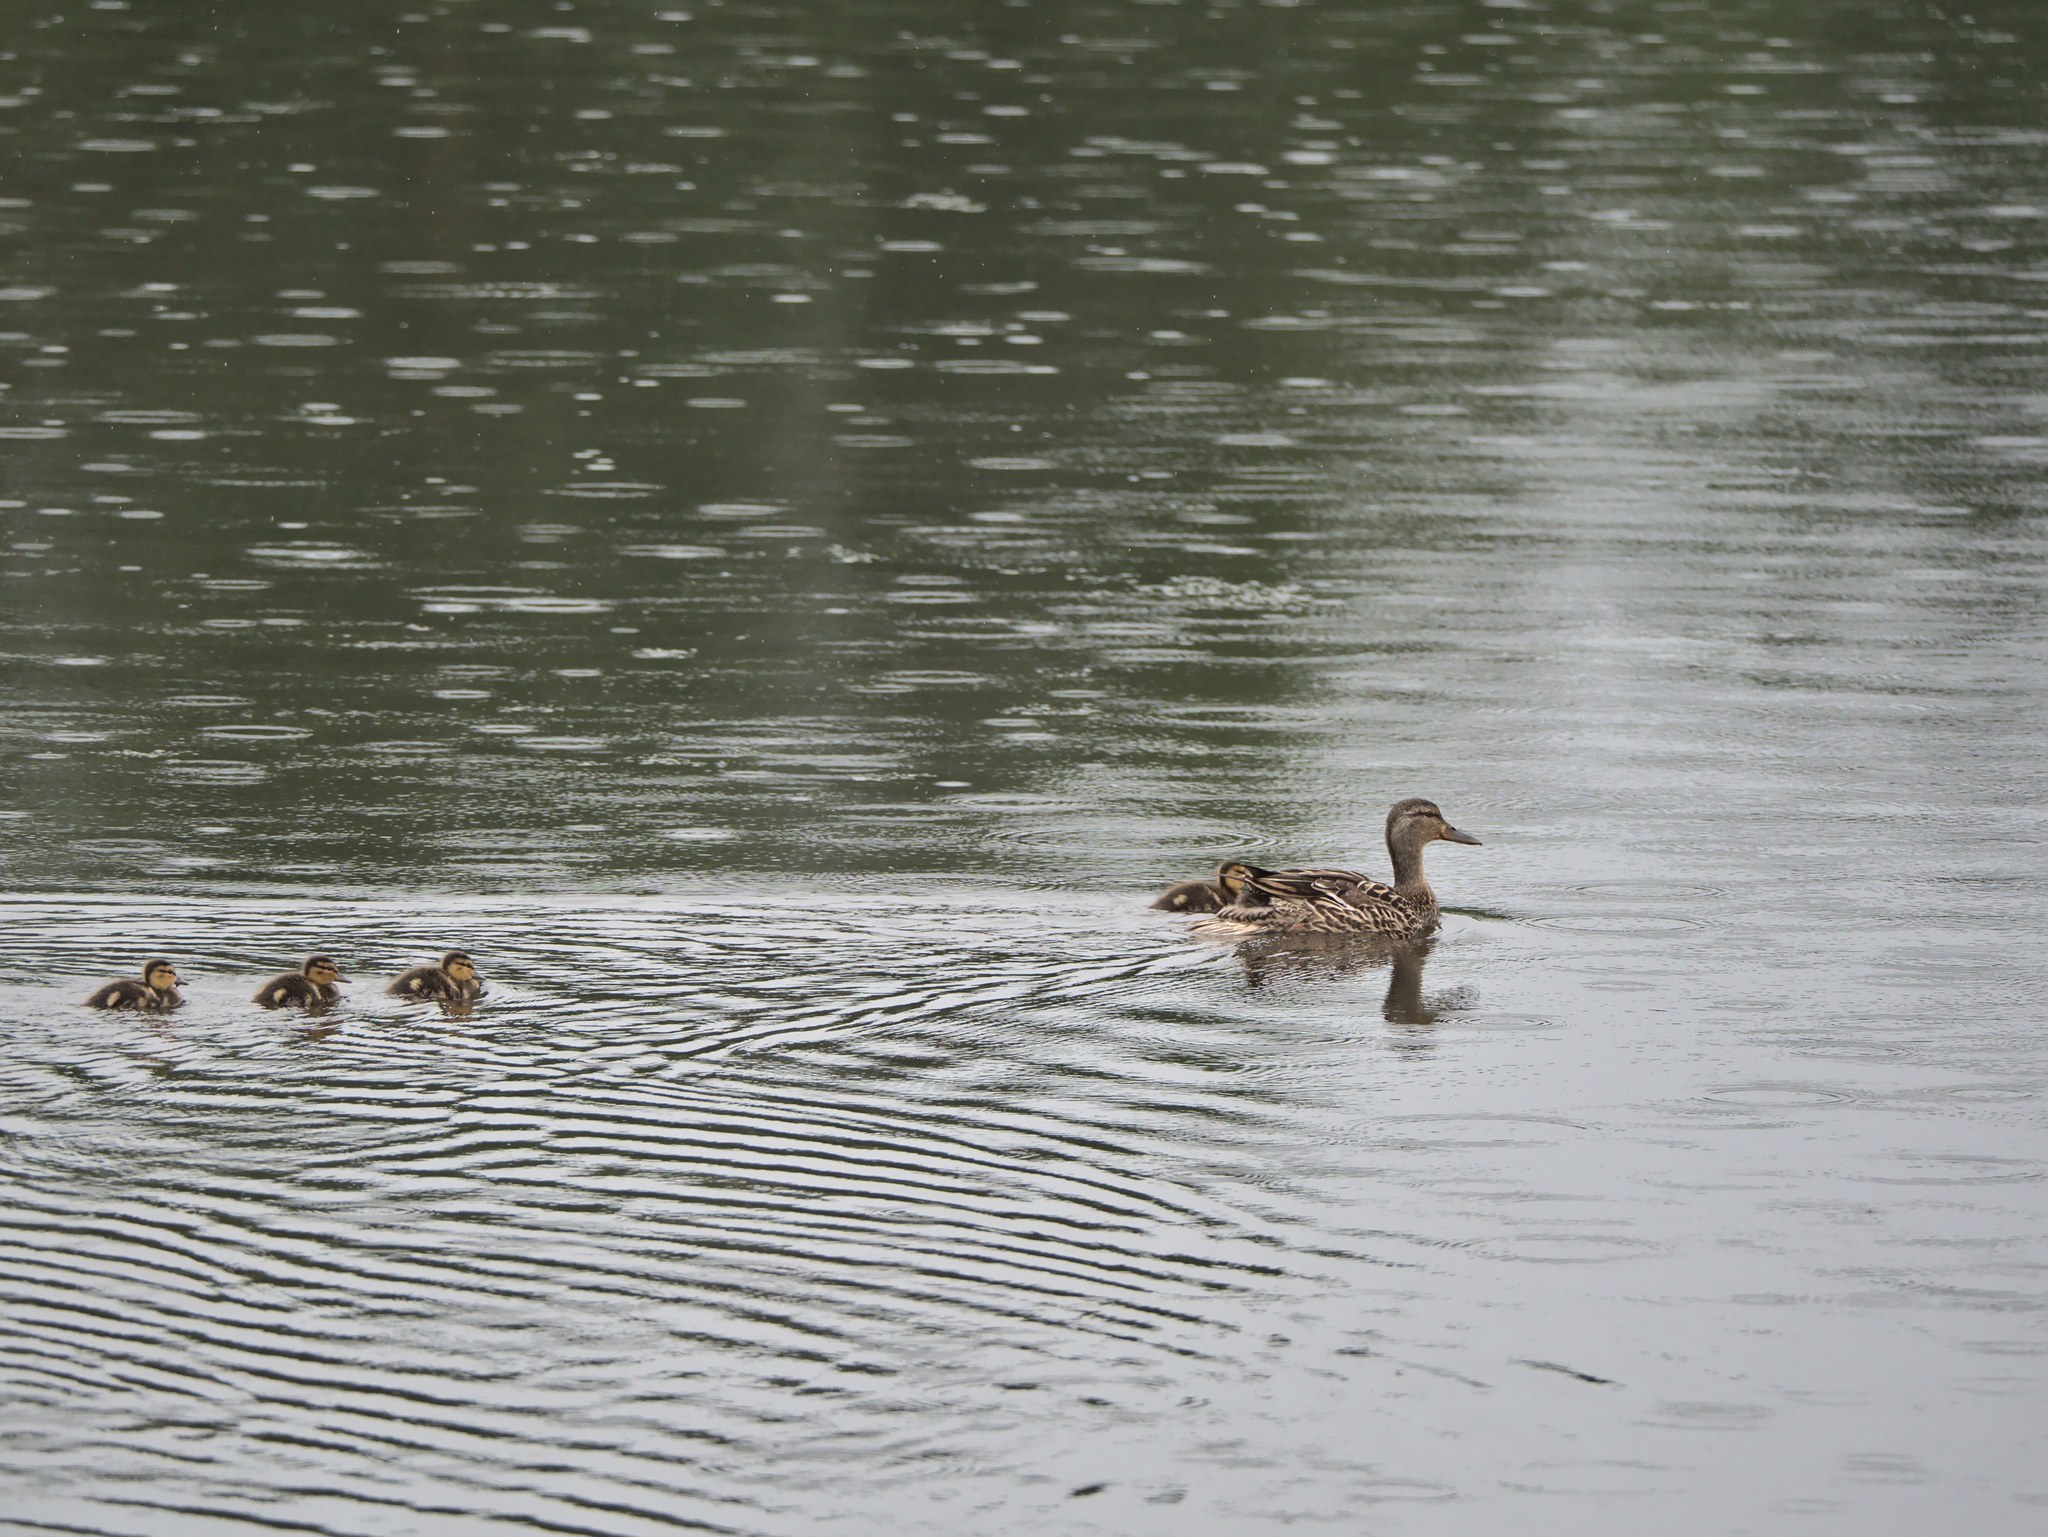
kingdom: Animalia
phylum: Chordata
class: Aves
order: Anseriformes
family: Anatidae
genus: Anas
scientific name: Anas platyrhynchos
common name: Mallard
